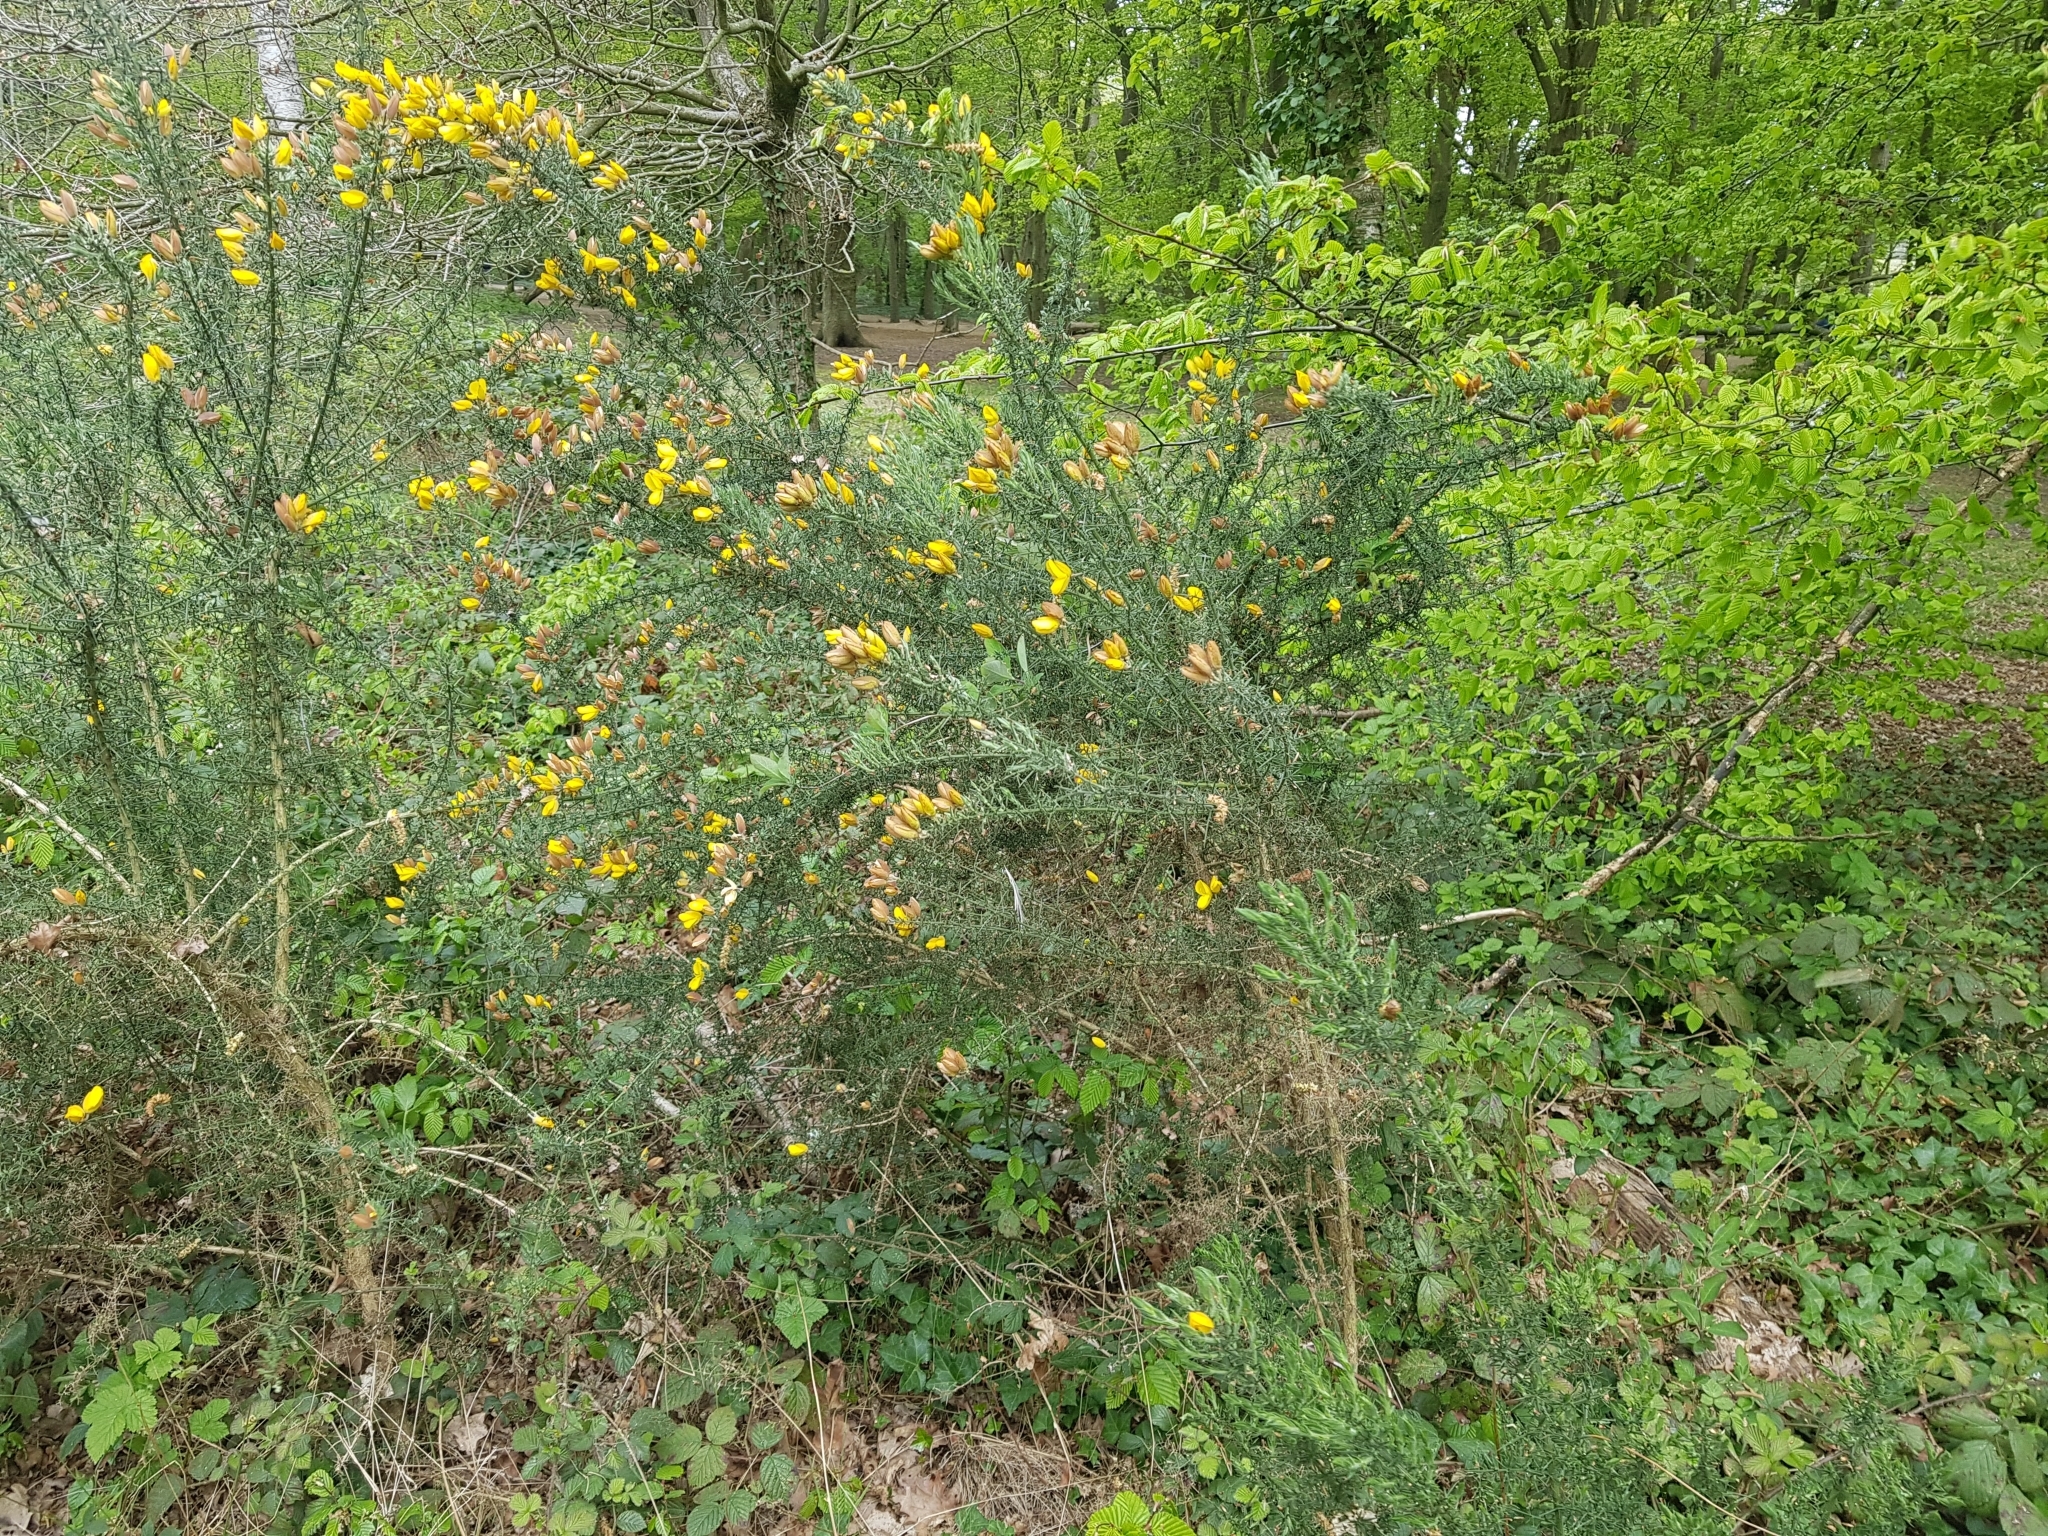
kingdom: Plantae
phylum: Tracheophyta
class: Magnoliopsida
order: Fabales
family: Fabaceae
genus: Ulex
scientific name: Ulex europaeus
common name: Common gorse
